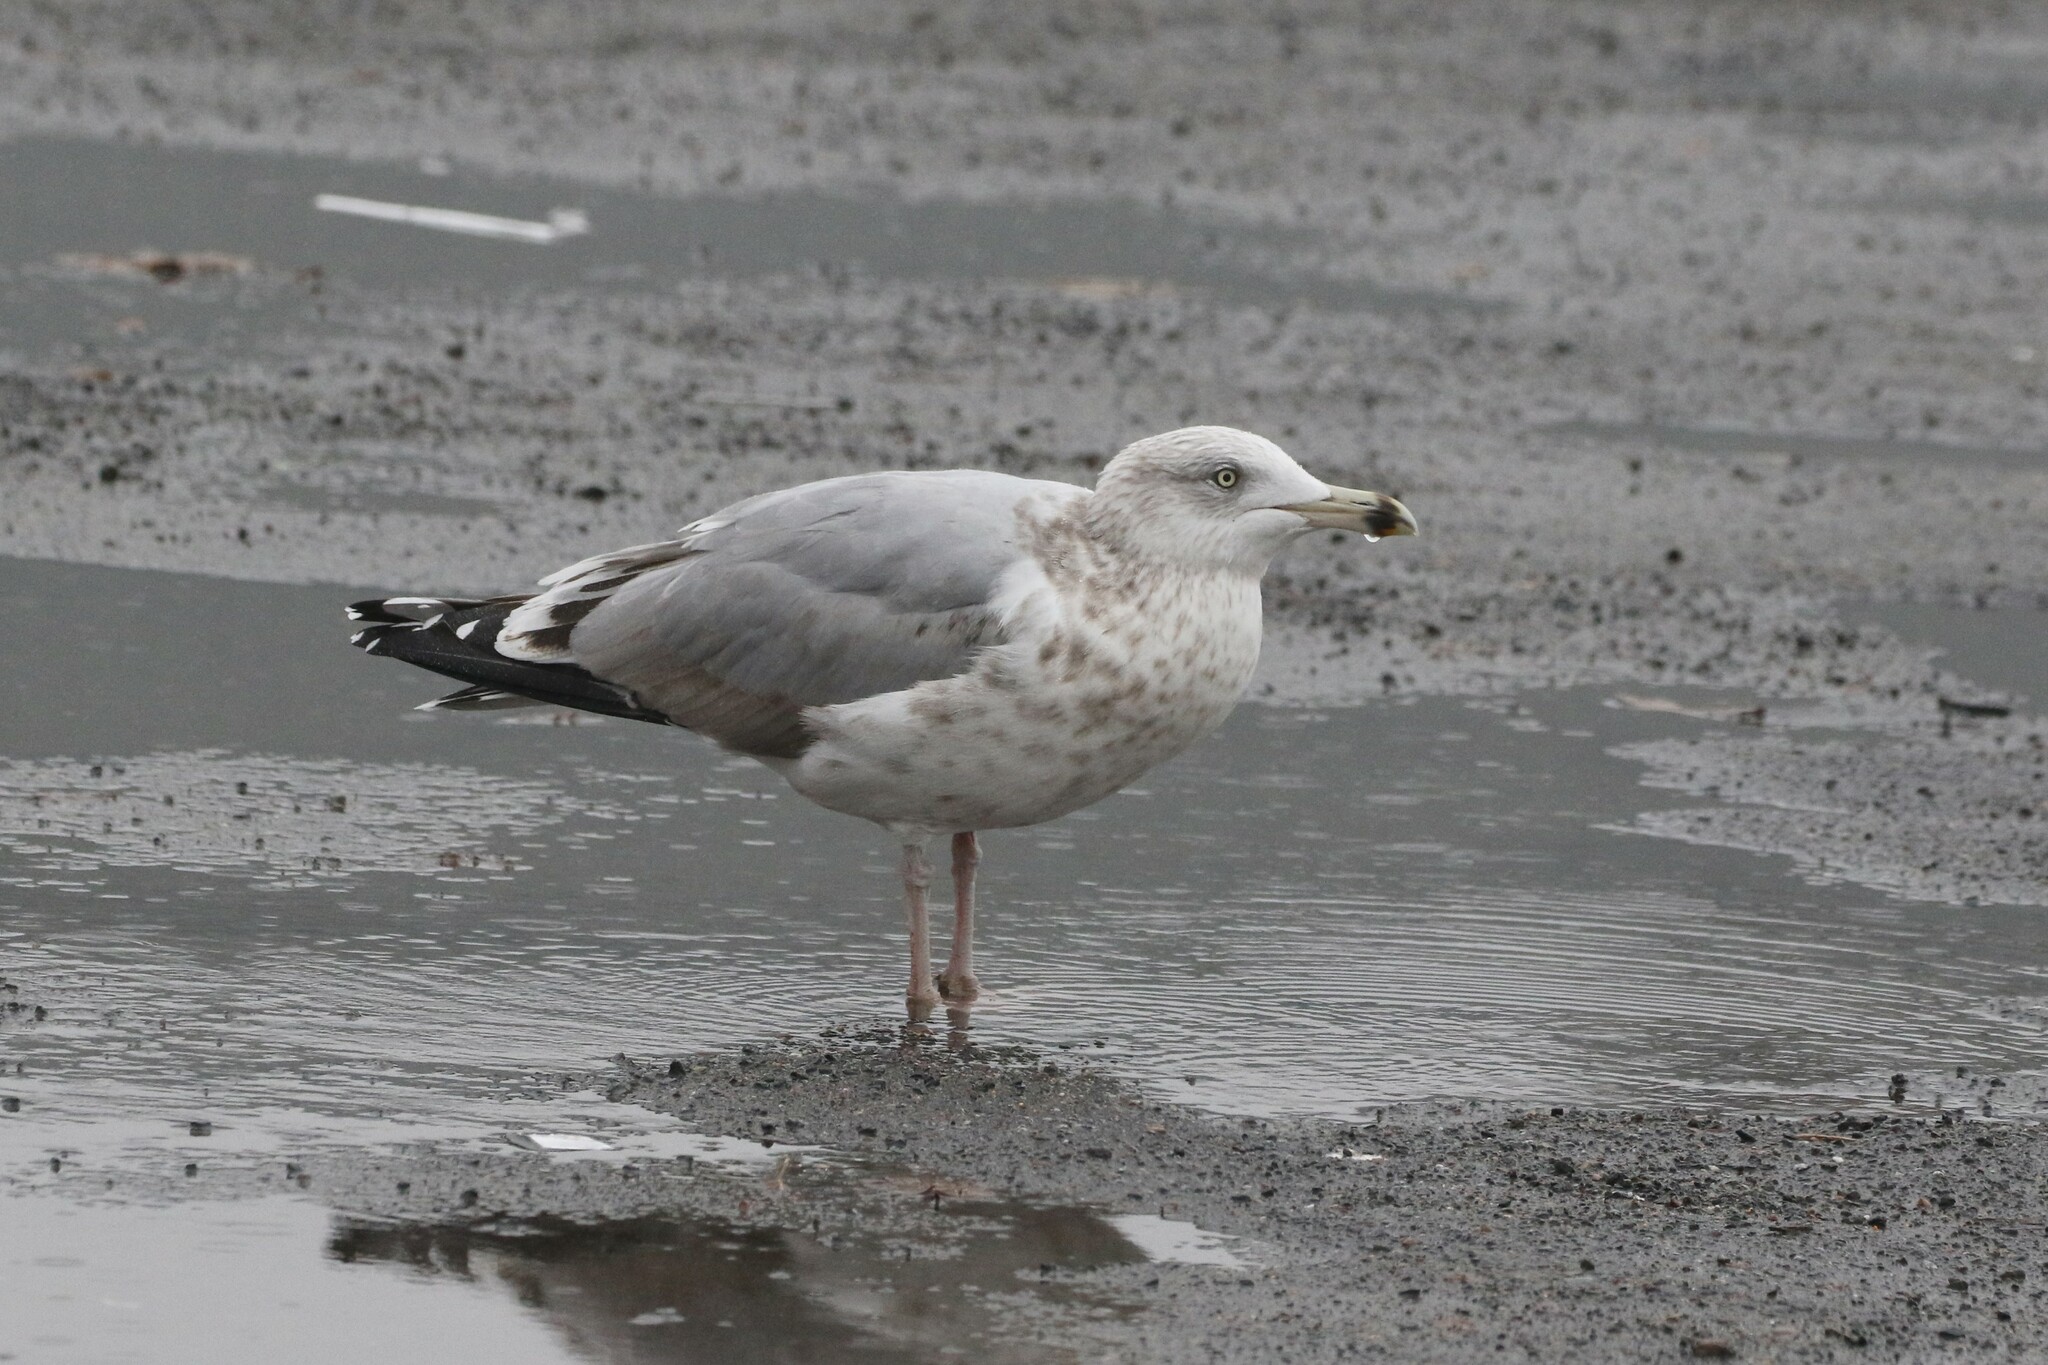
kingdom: Animalia
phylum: Chordata
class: Aves
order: Charadriiformes
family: Laridae
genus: Larus
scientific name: Larus argentatus
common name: Herring gull
